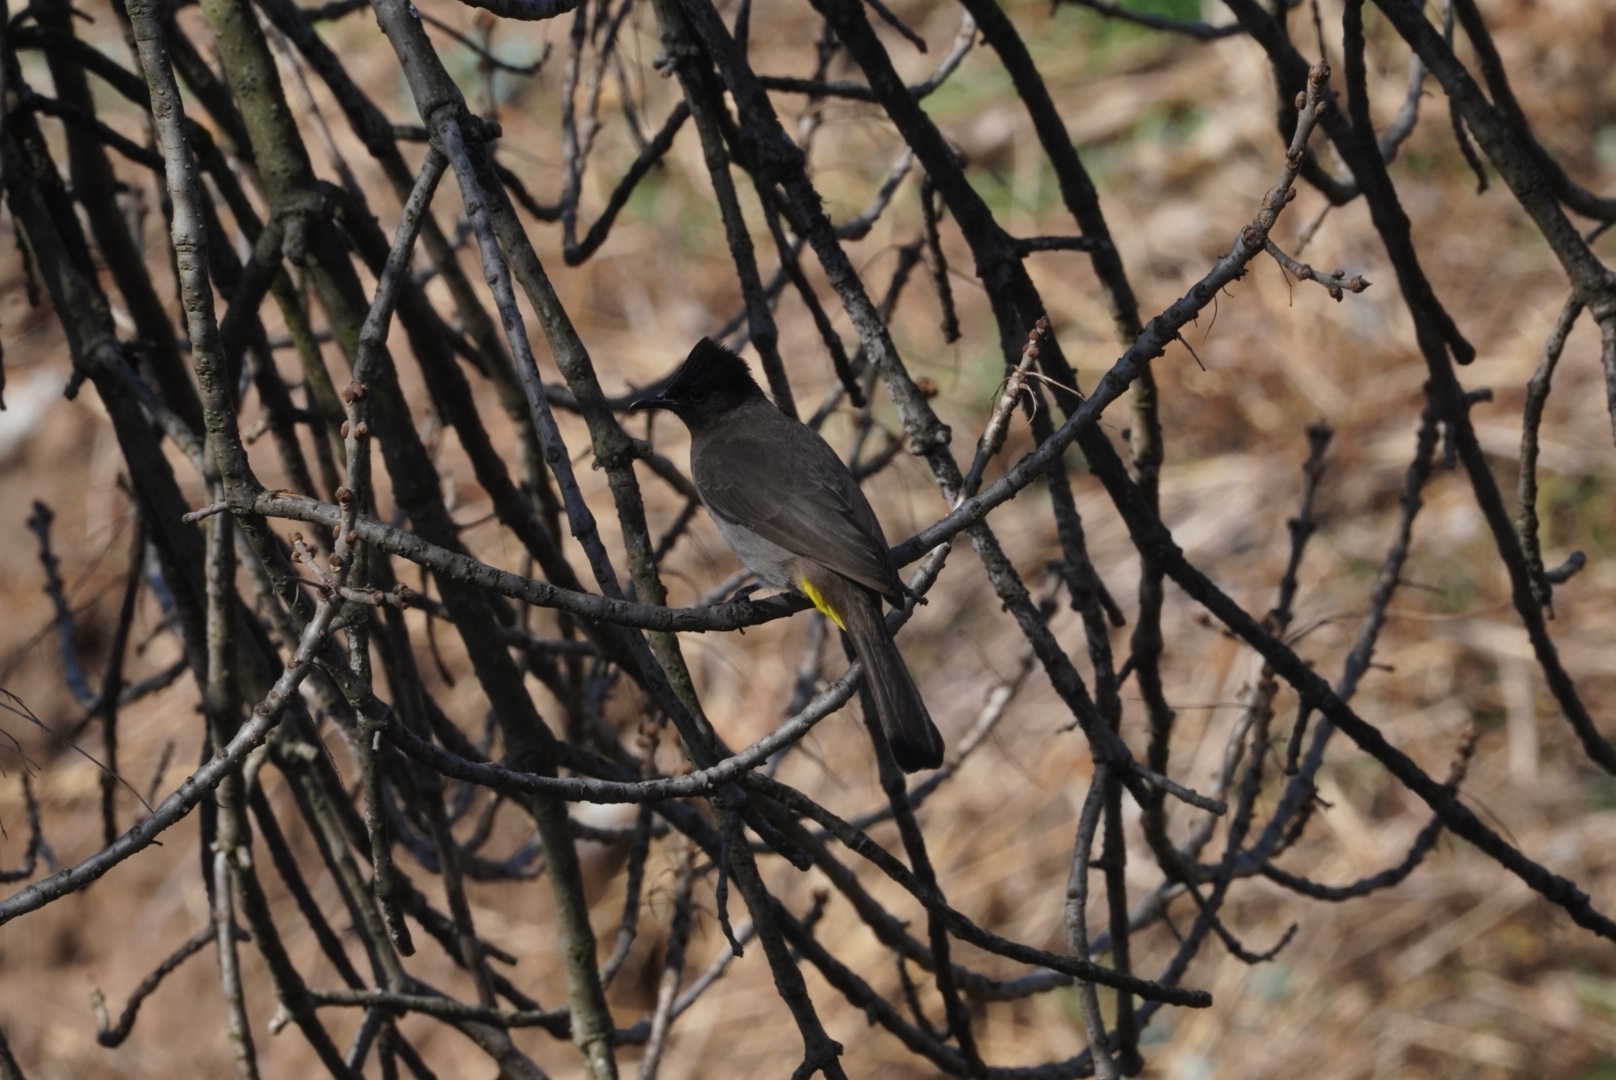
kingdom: Animalia
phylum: Chordata
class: Aves
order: Passeriformes
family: Pycnonotidae
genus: Pycnonotus
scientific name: Pycnonotus barbatus
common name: Common bulbul
